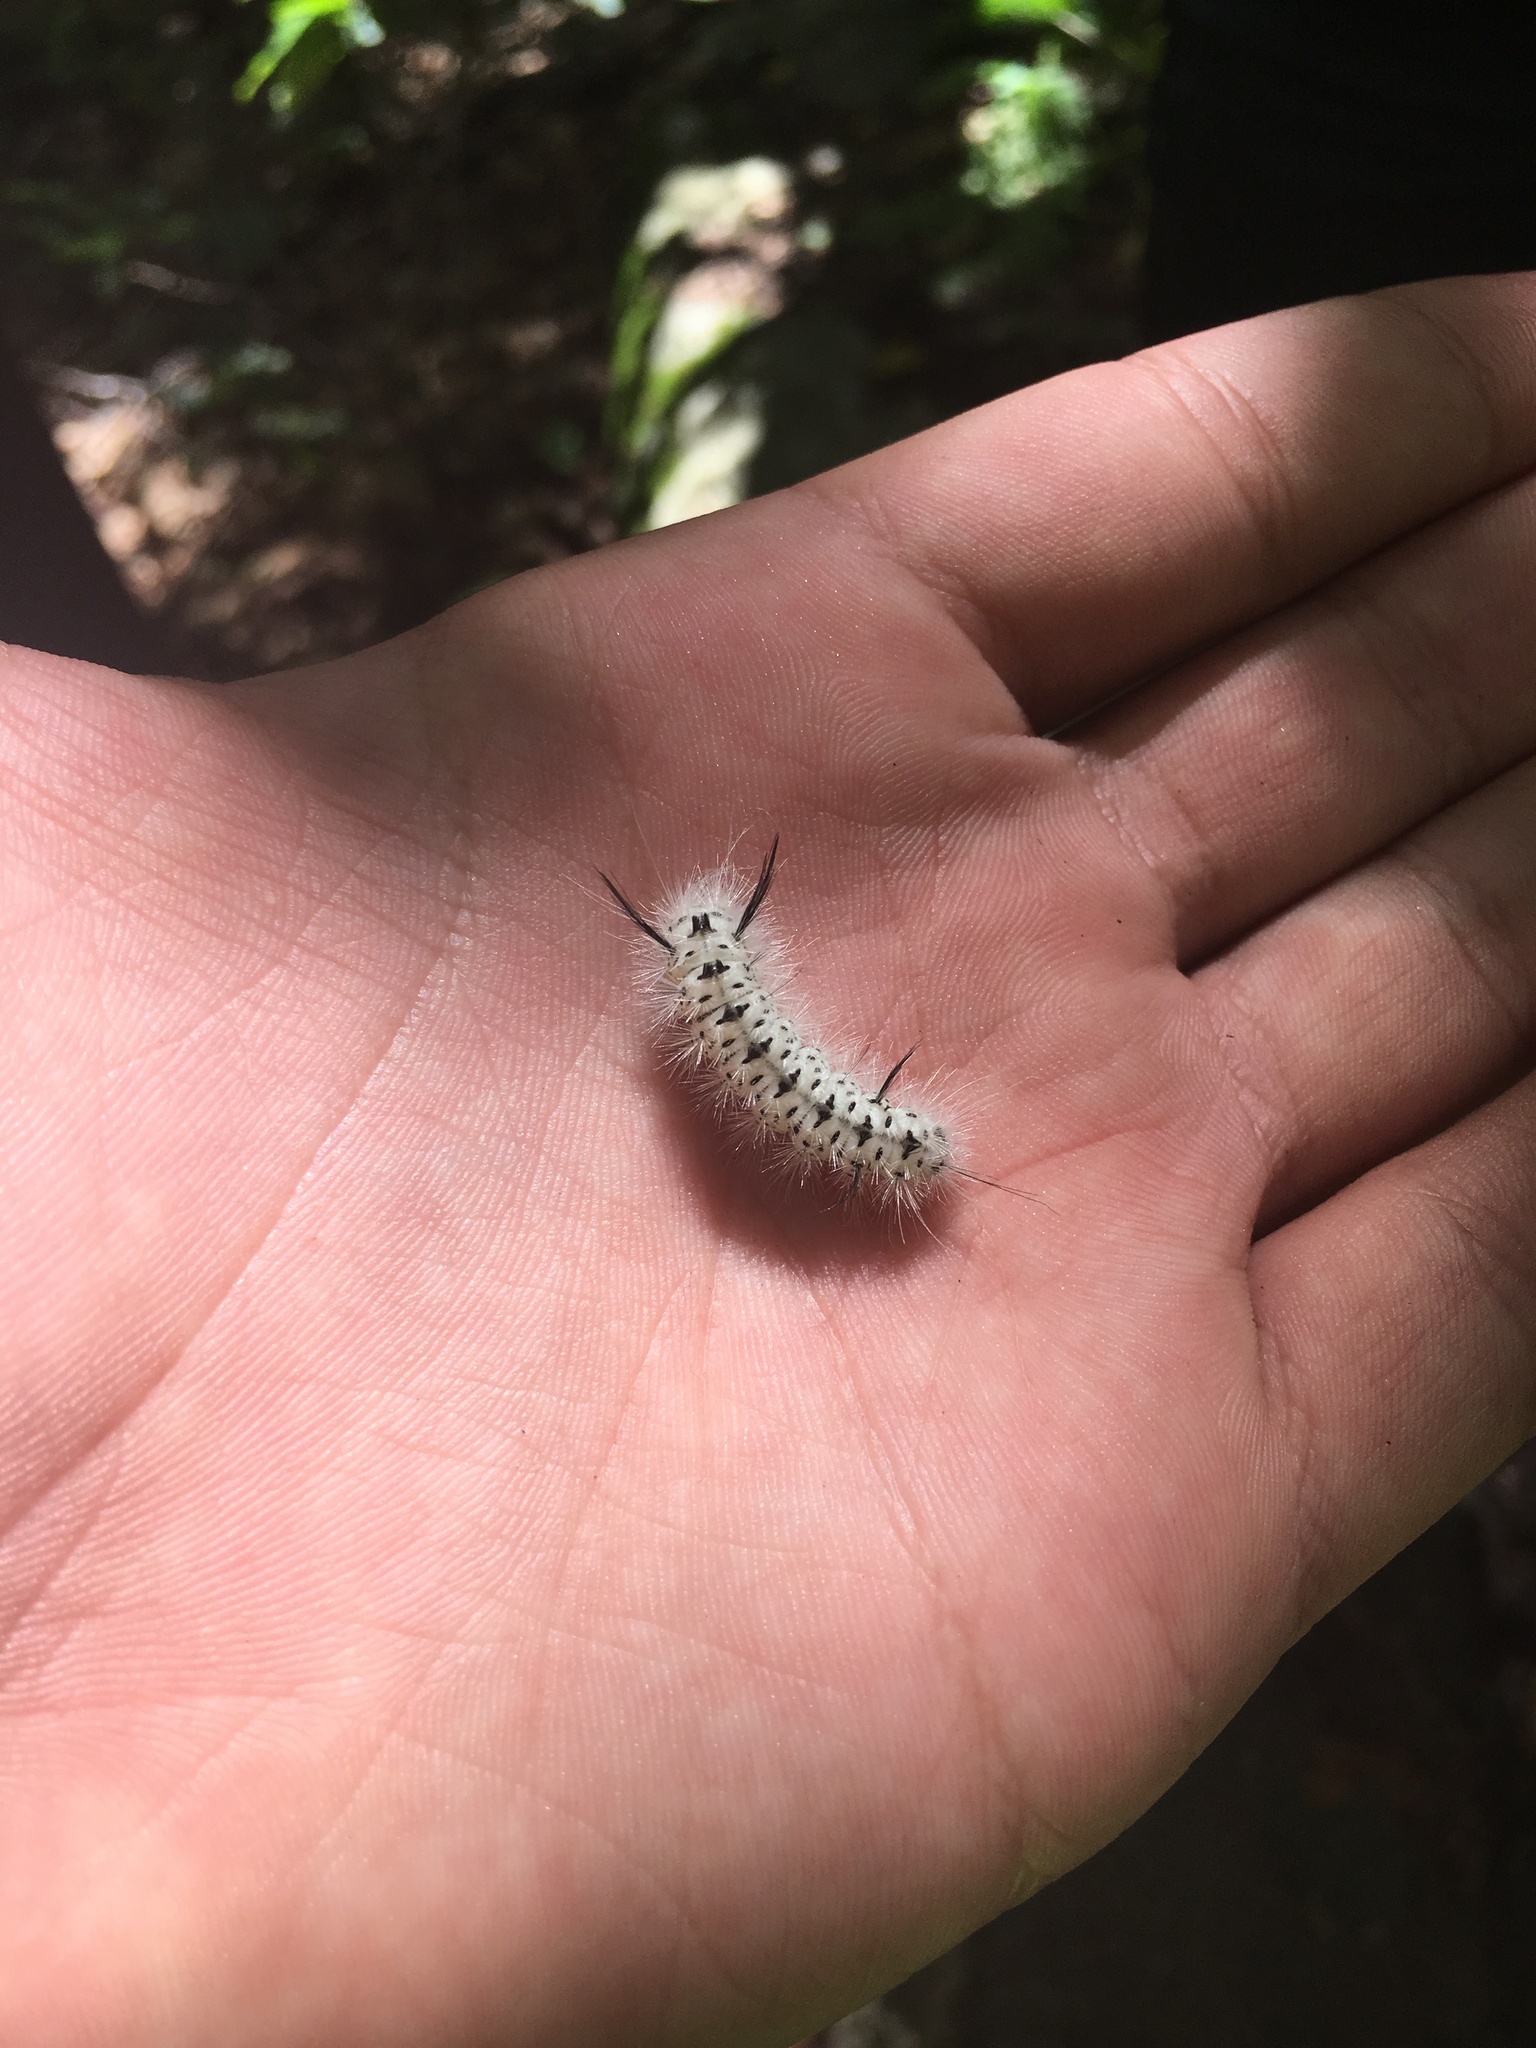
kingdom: Animalia
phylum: Arthropoda
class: Insecta
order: Lepidoptera
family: Erebidae
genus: Lophocampa
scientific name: Lophocampa caryae
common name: Hickory tussock moth
